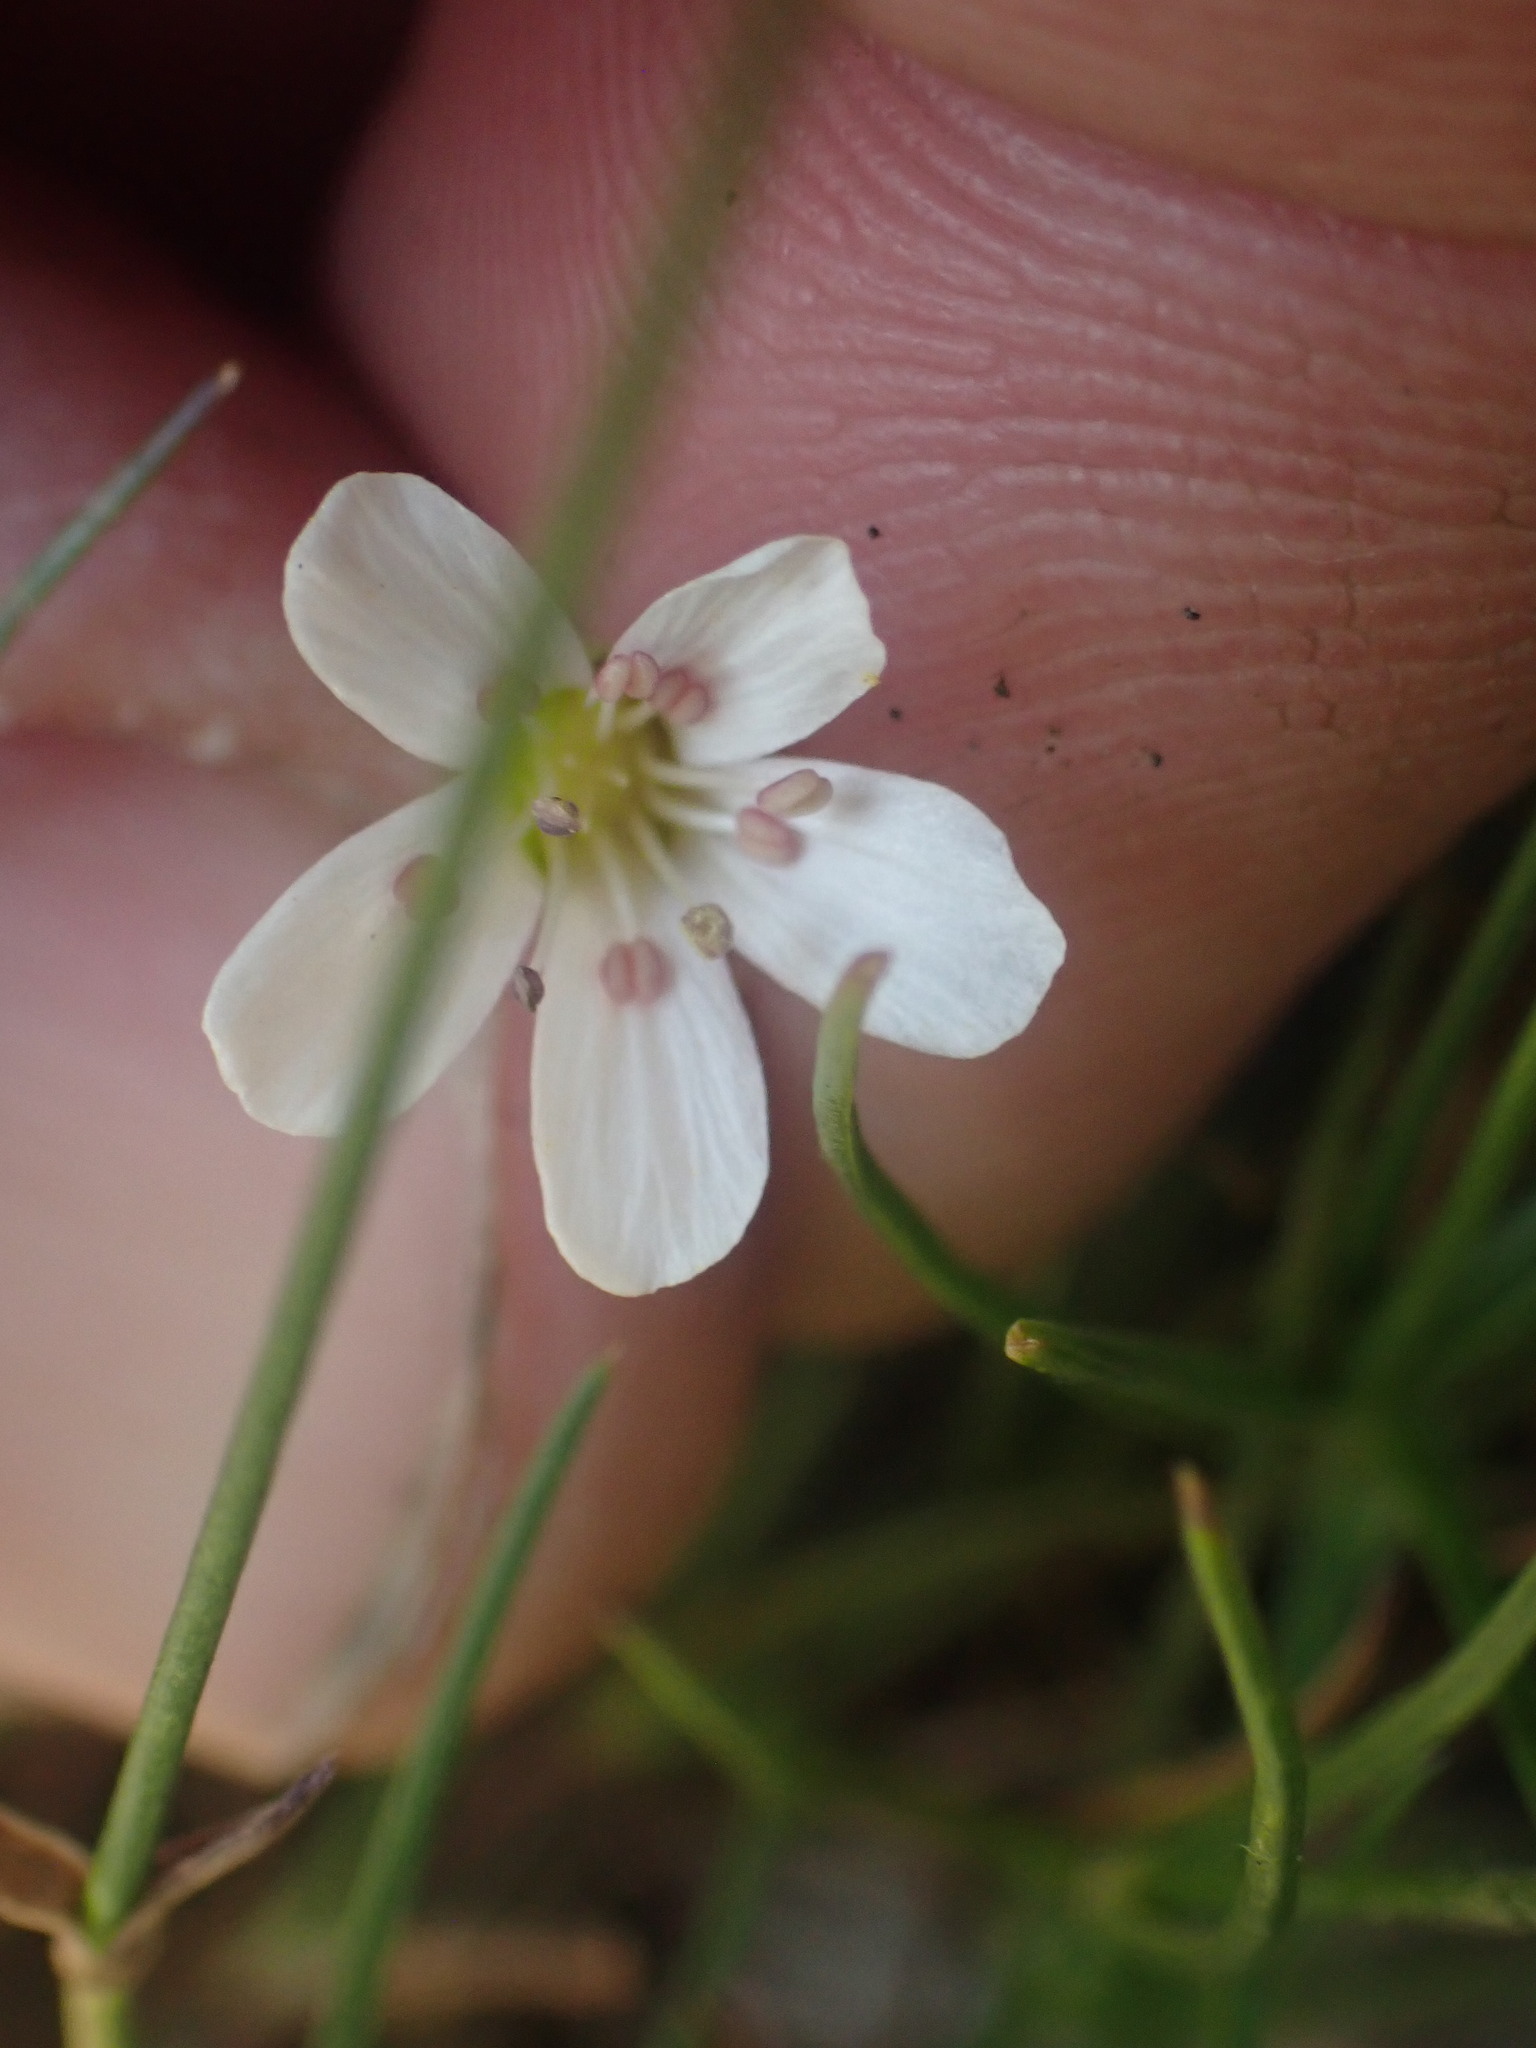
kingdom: Plantae
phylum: Tracheophyta
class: Magnoliopsida
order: Caryophyllales
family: Caryophyllaceae
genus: Eremogone
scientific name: Eremogone capillaris
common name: Slender mountain sandwort
